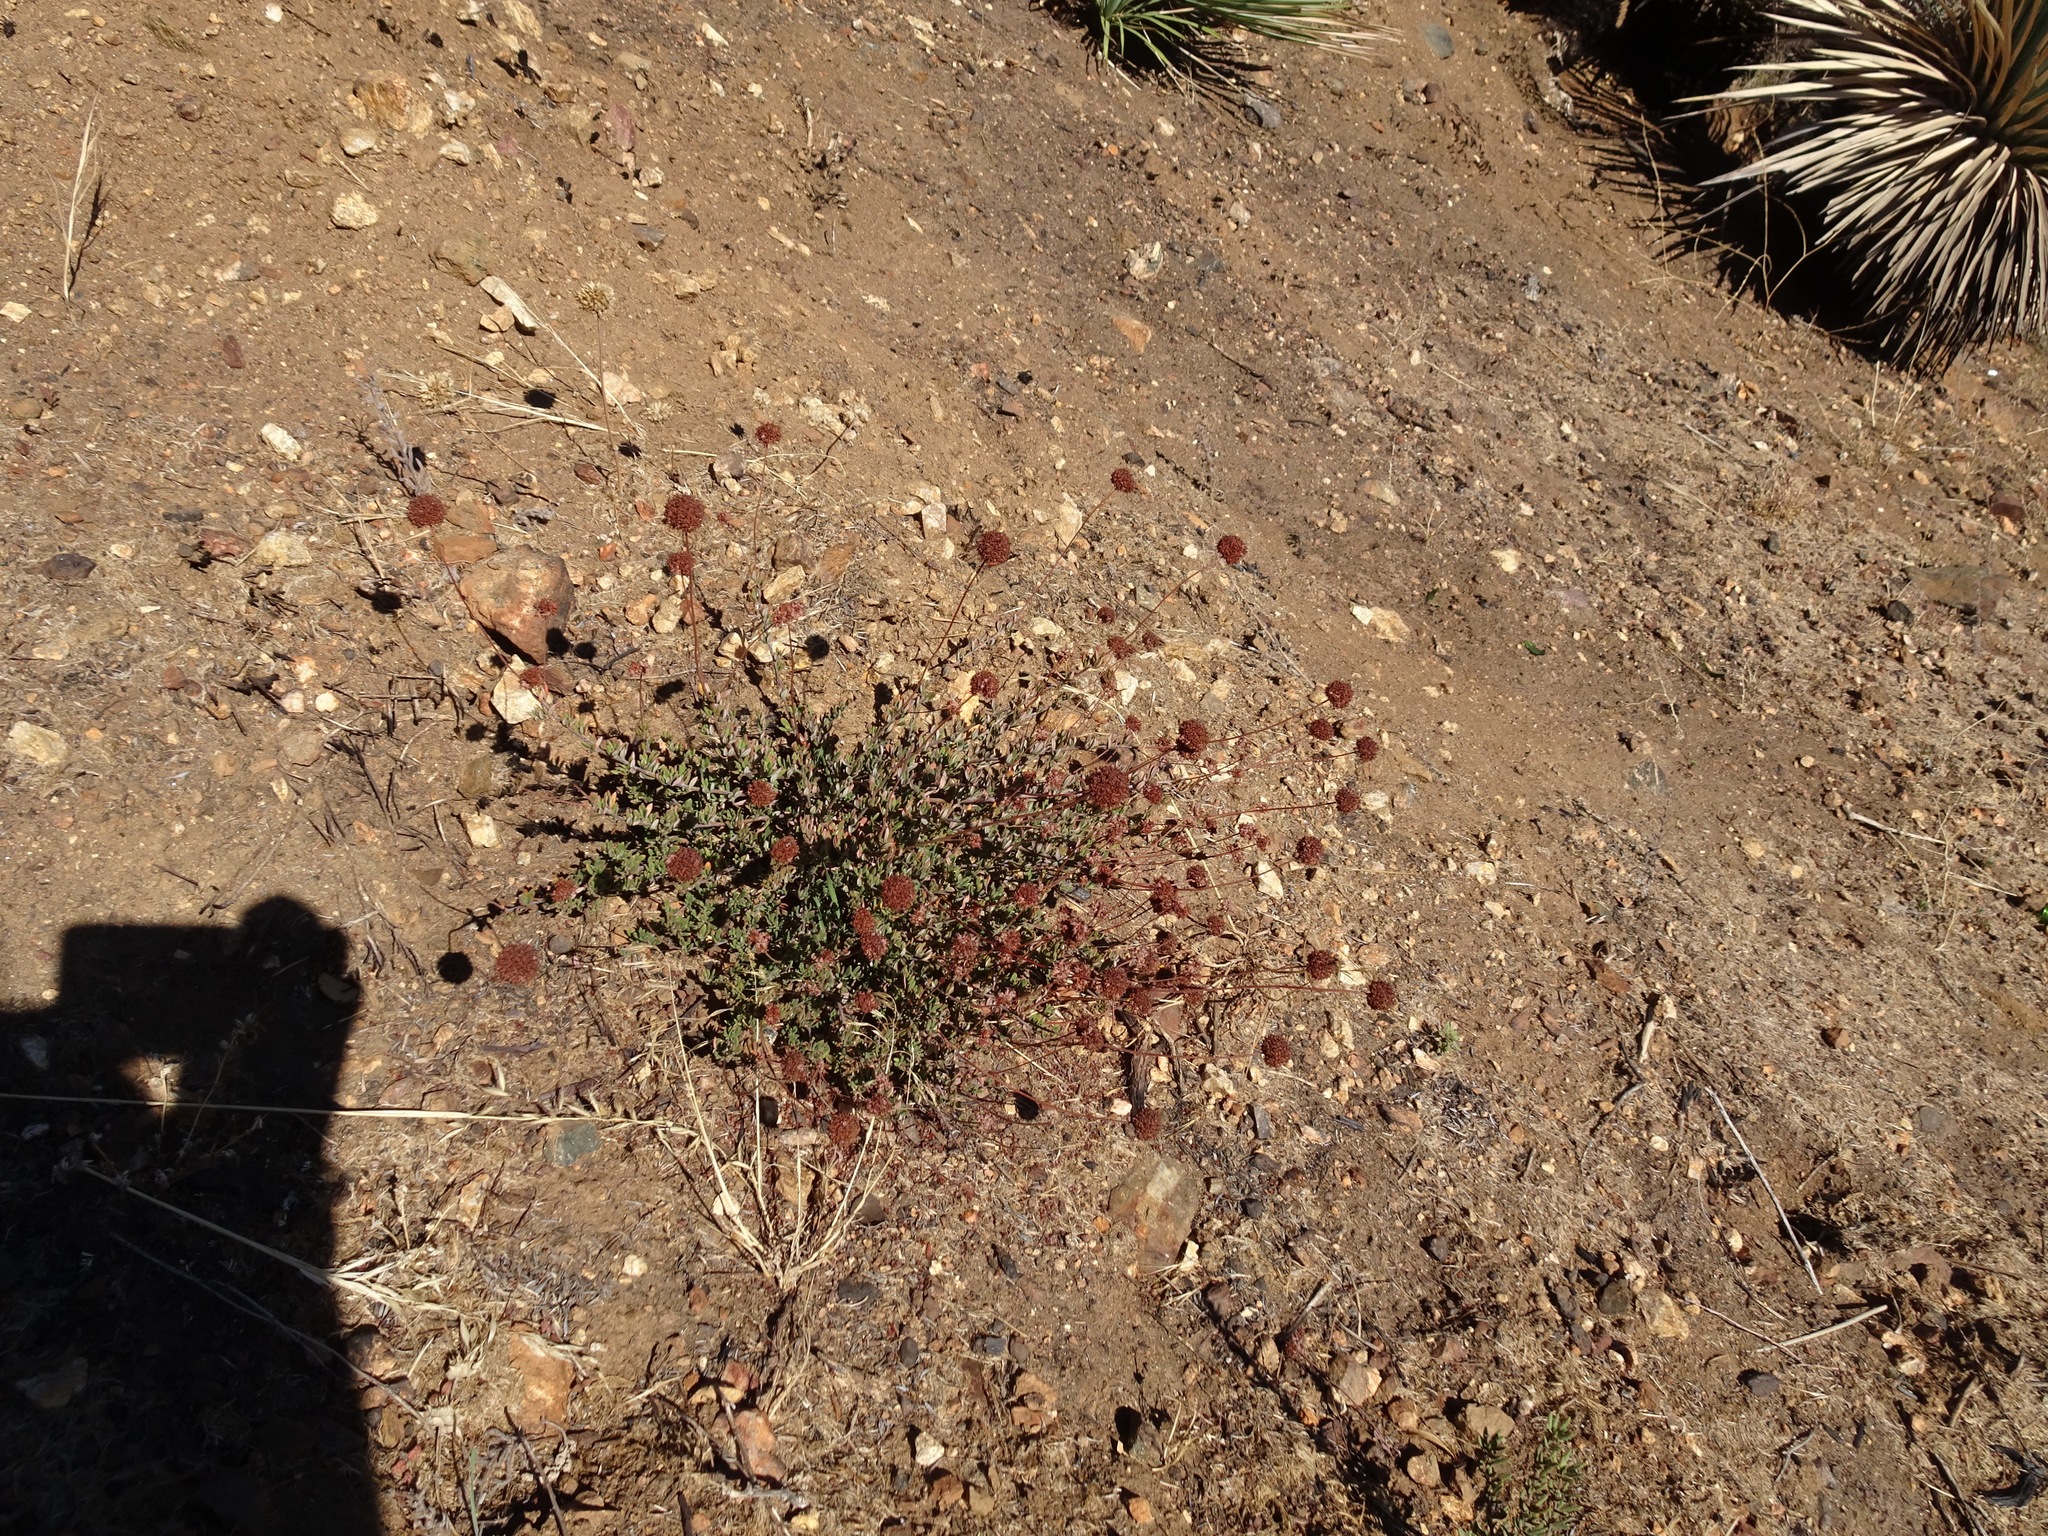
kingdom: Plantae
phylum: Tracheophyta
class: Magnoliopsida
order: Caryophyllales
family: Polygonaceae
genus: Eriogonum
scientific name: Eriogonum fasciculatum
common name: California wild buckwheat
